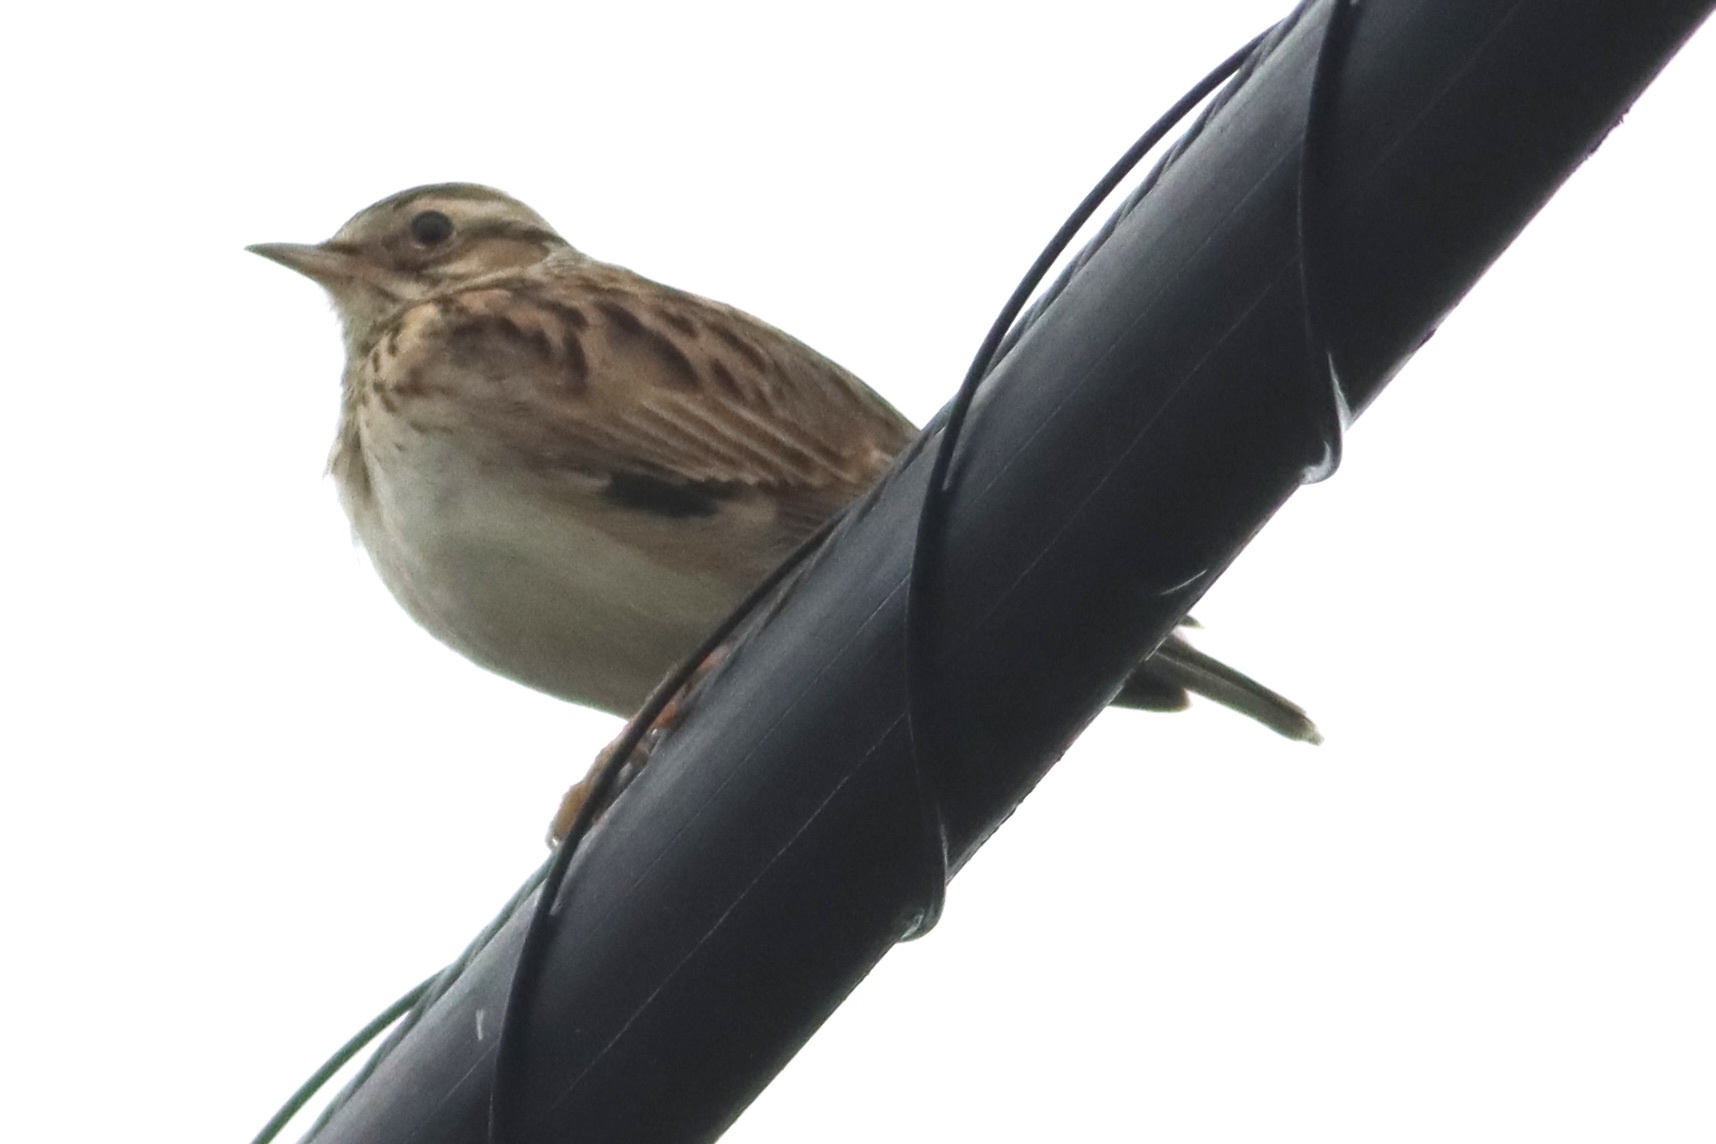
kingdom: Animalia
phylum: Chordata
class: Aves
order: Passeriformes
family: Alaudidae
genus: Lullula
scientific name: Lullula arborea
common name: Woodlark
